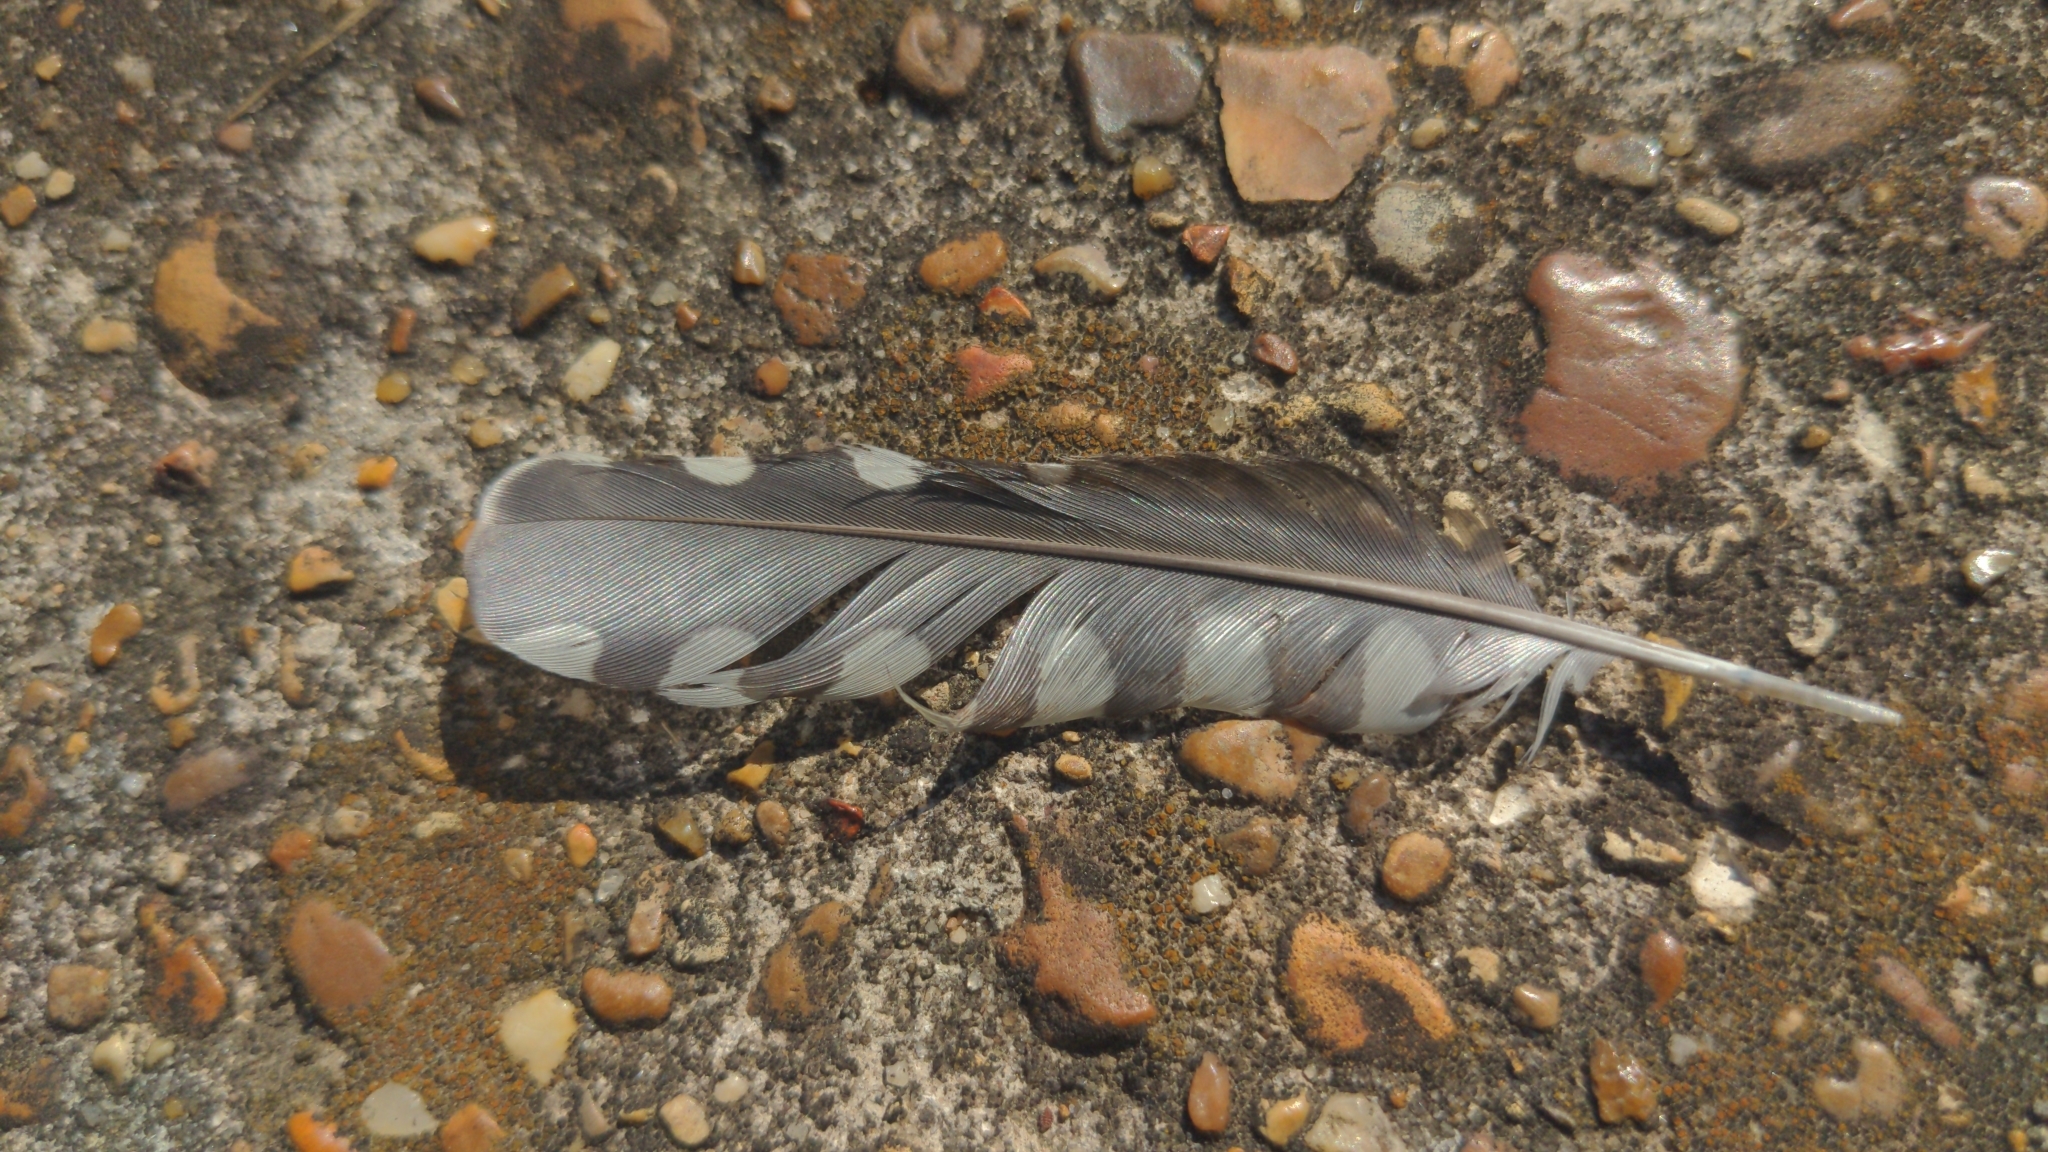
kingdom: Animalia
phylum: Chordata
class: Aves
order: Piciformes
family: Picidae
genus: Sphyrapicus
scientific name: Sphyrapicus varius
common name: Yellow-bellied sapsucker
